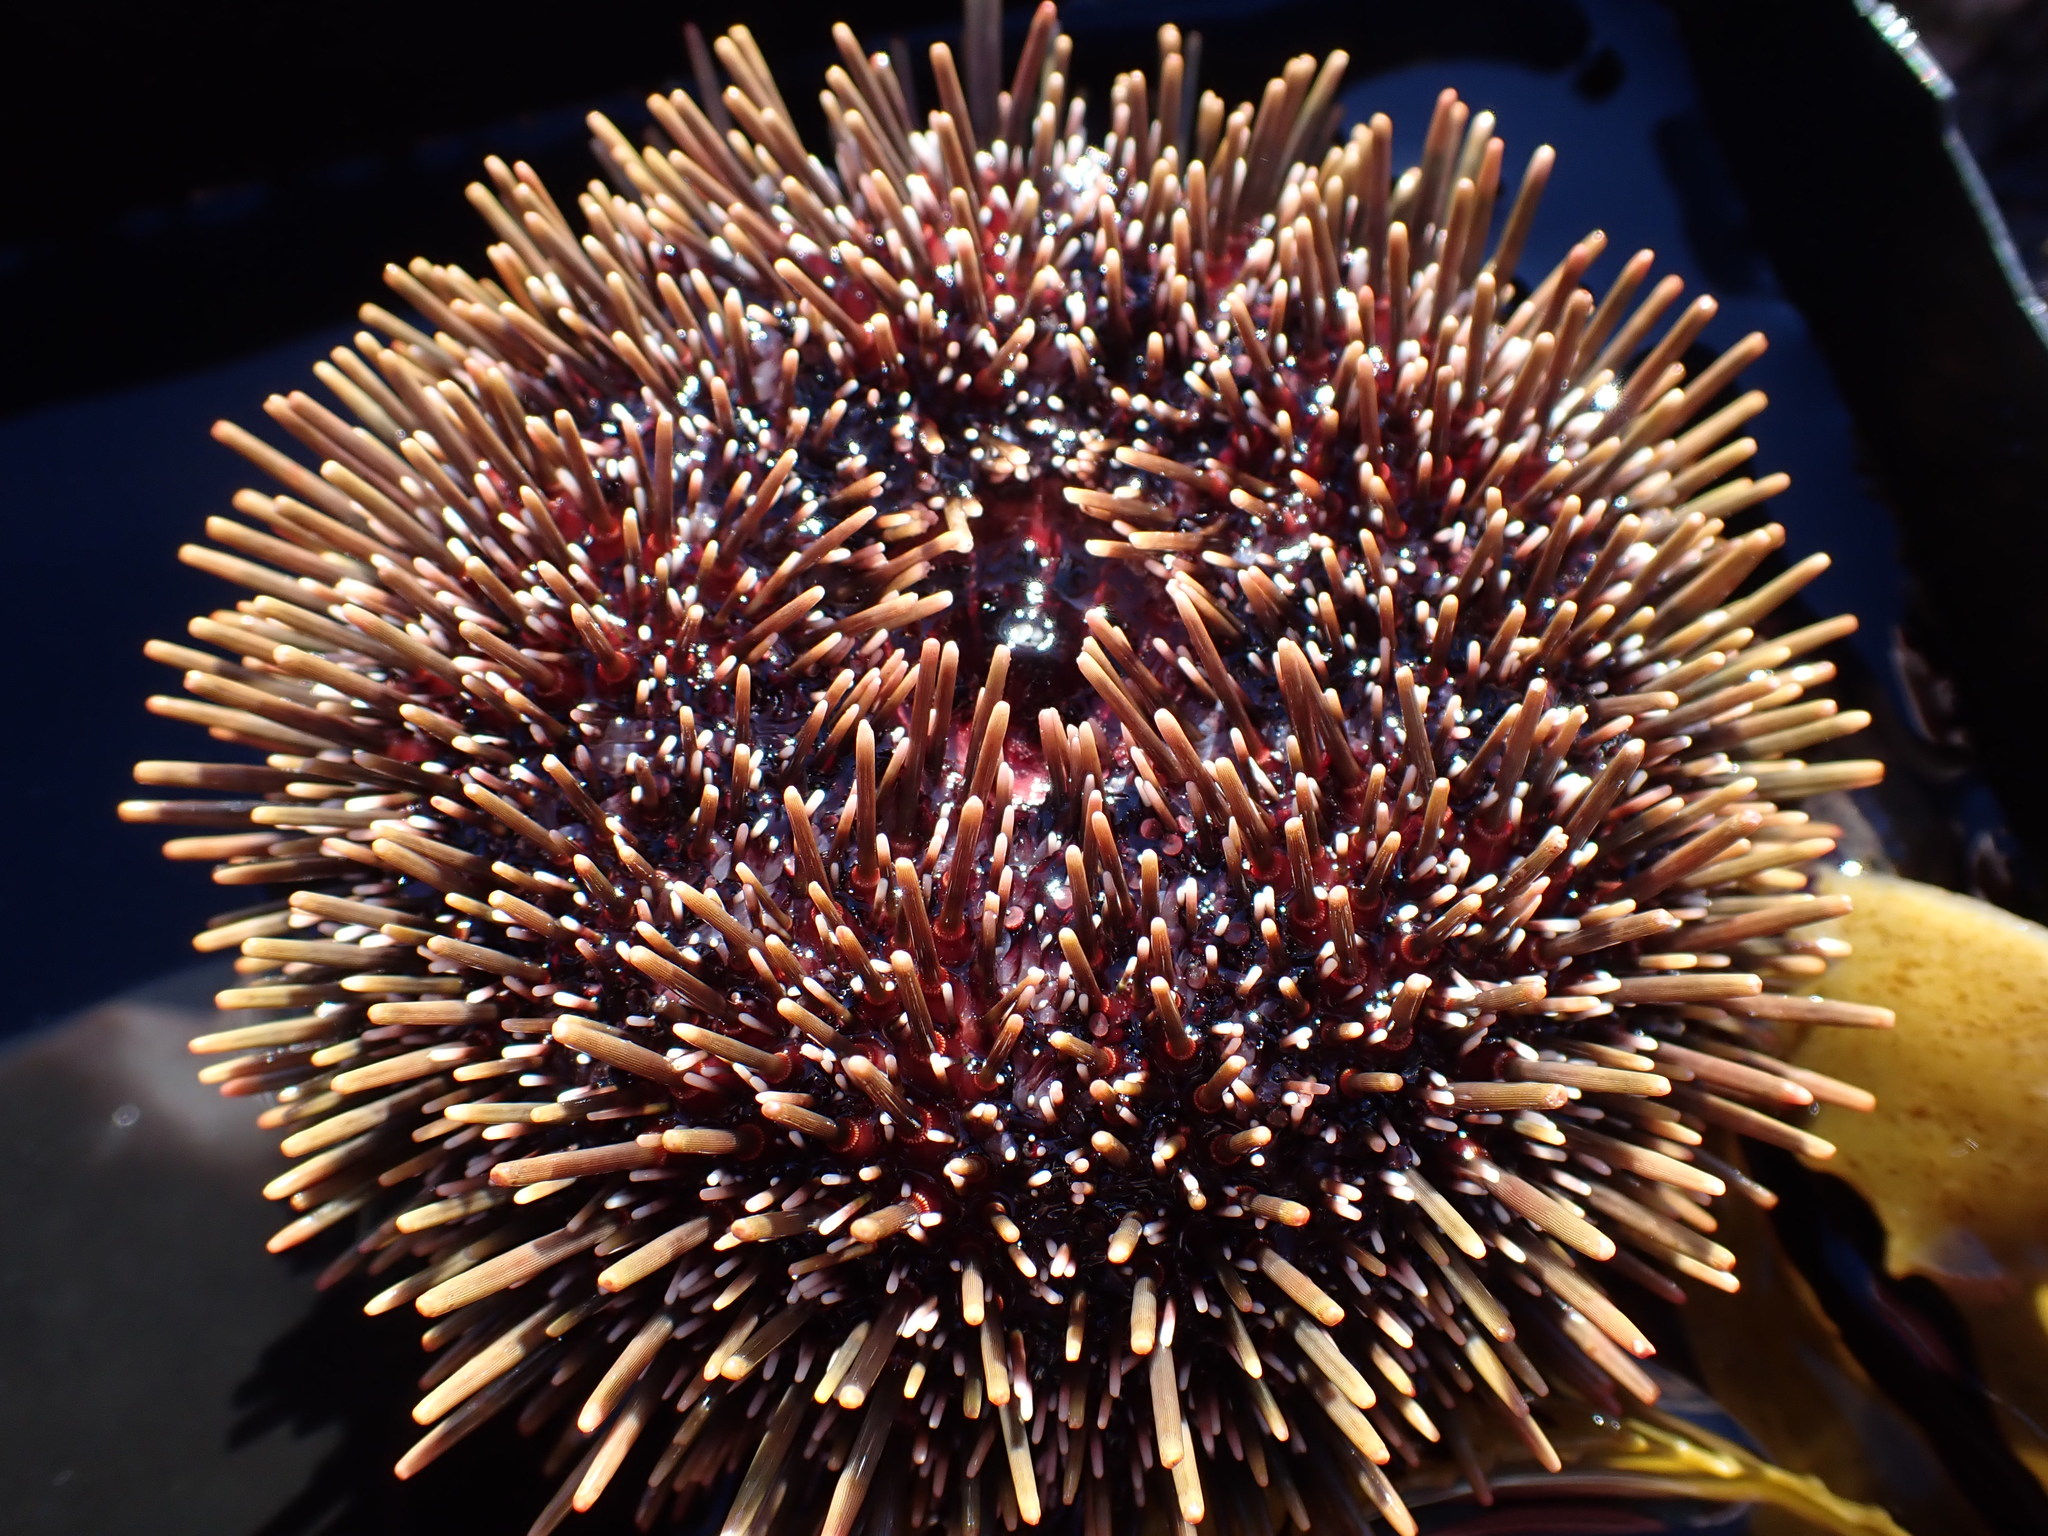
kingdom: Animalia
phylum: Echinodermata
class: Echinoidea
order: Camarodonta
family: Echinometridae
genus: Evechinus
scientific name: Evechinus chloroticus
